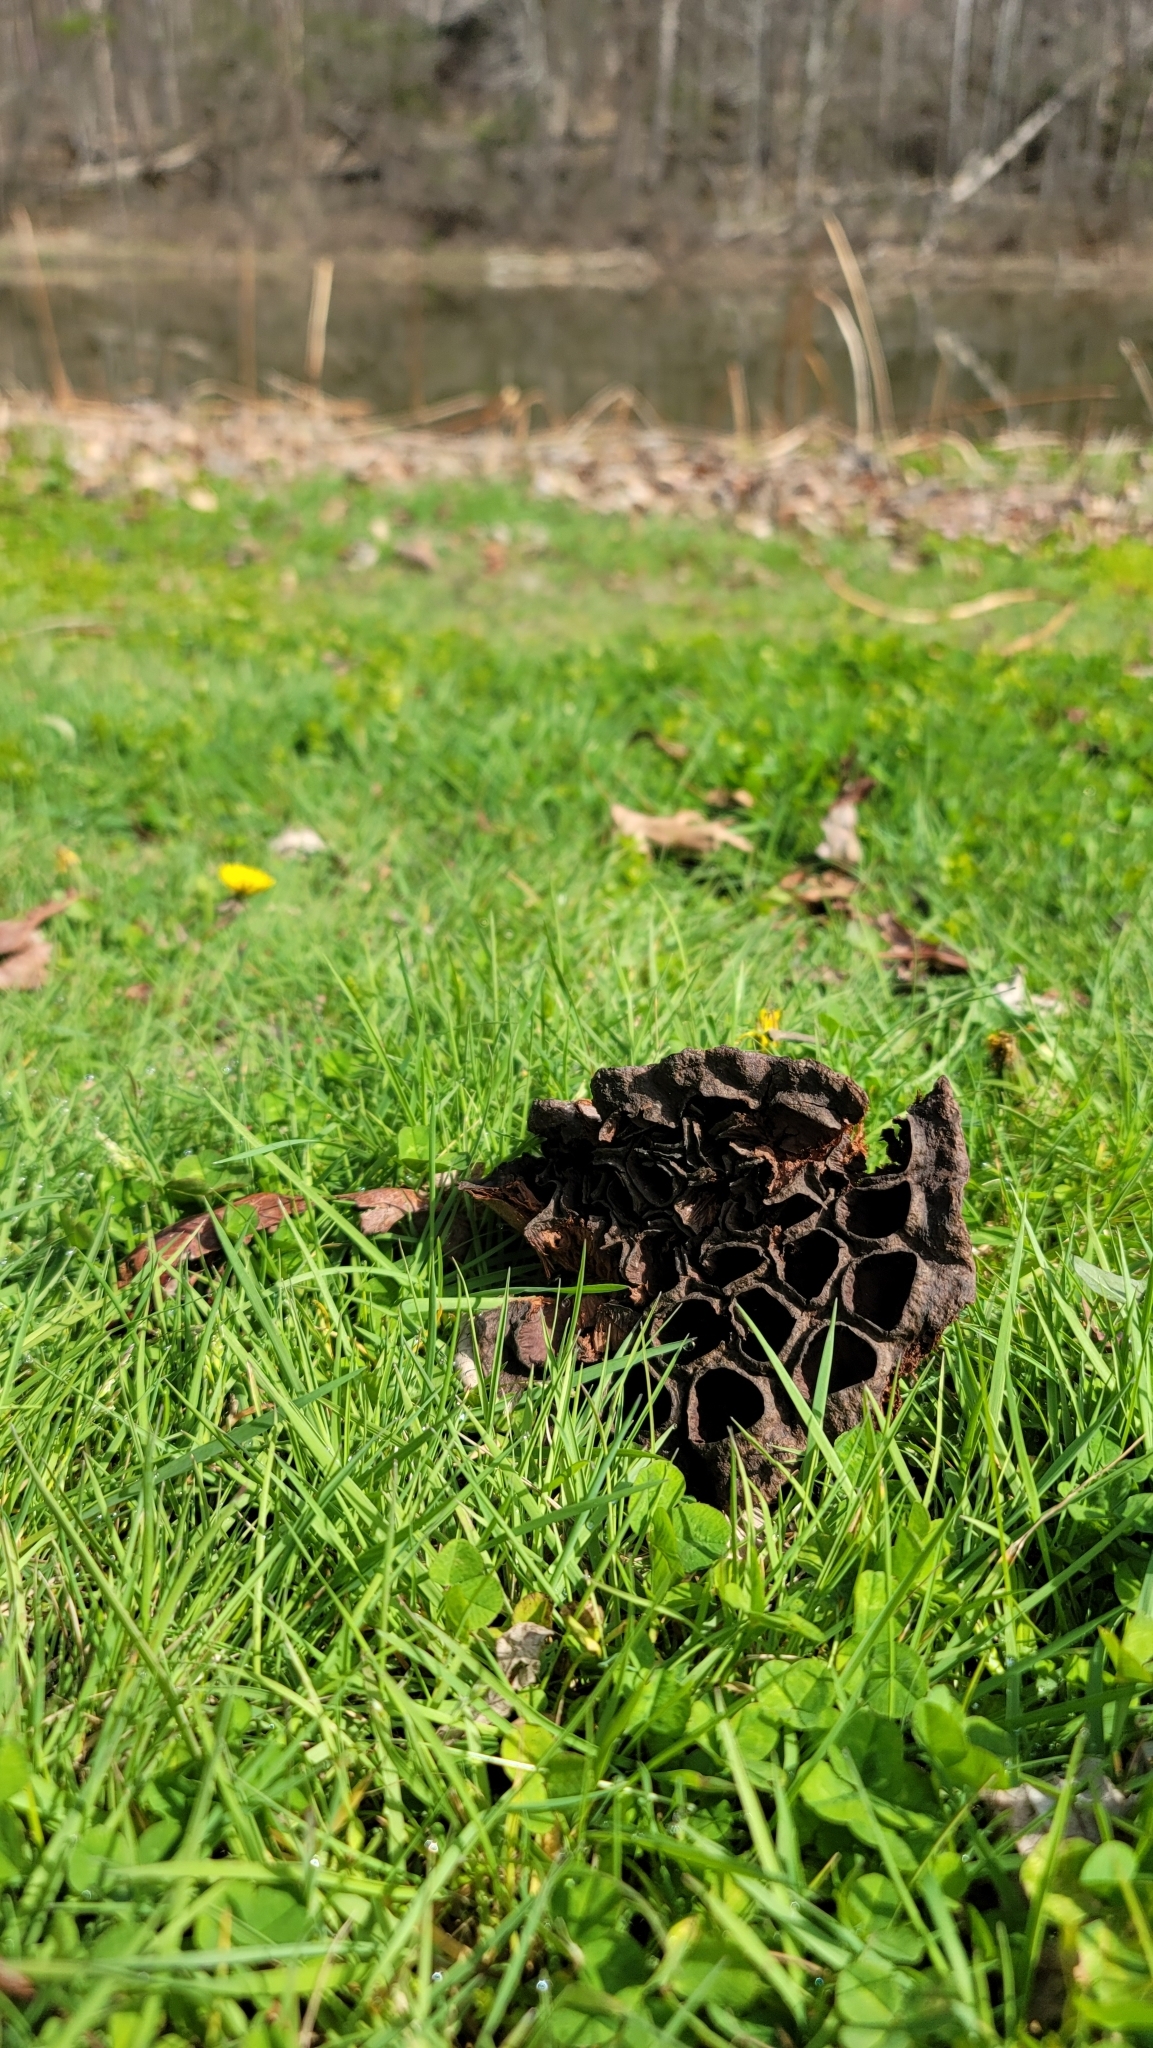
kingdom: Plantae
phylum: Tracheophyta
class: Magnoliopsida
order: Proteales
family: Nelumbonaceae
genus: Nelumbo
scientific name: Nelumbo lutea
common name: American lotus
